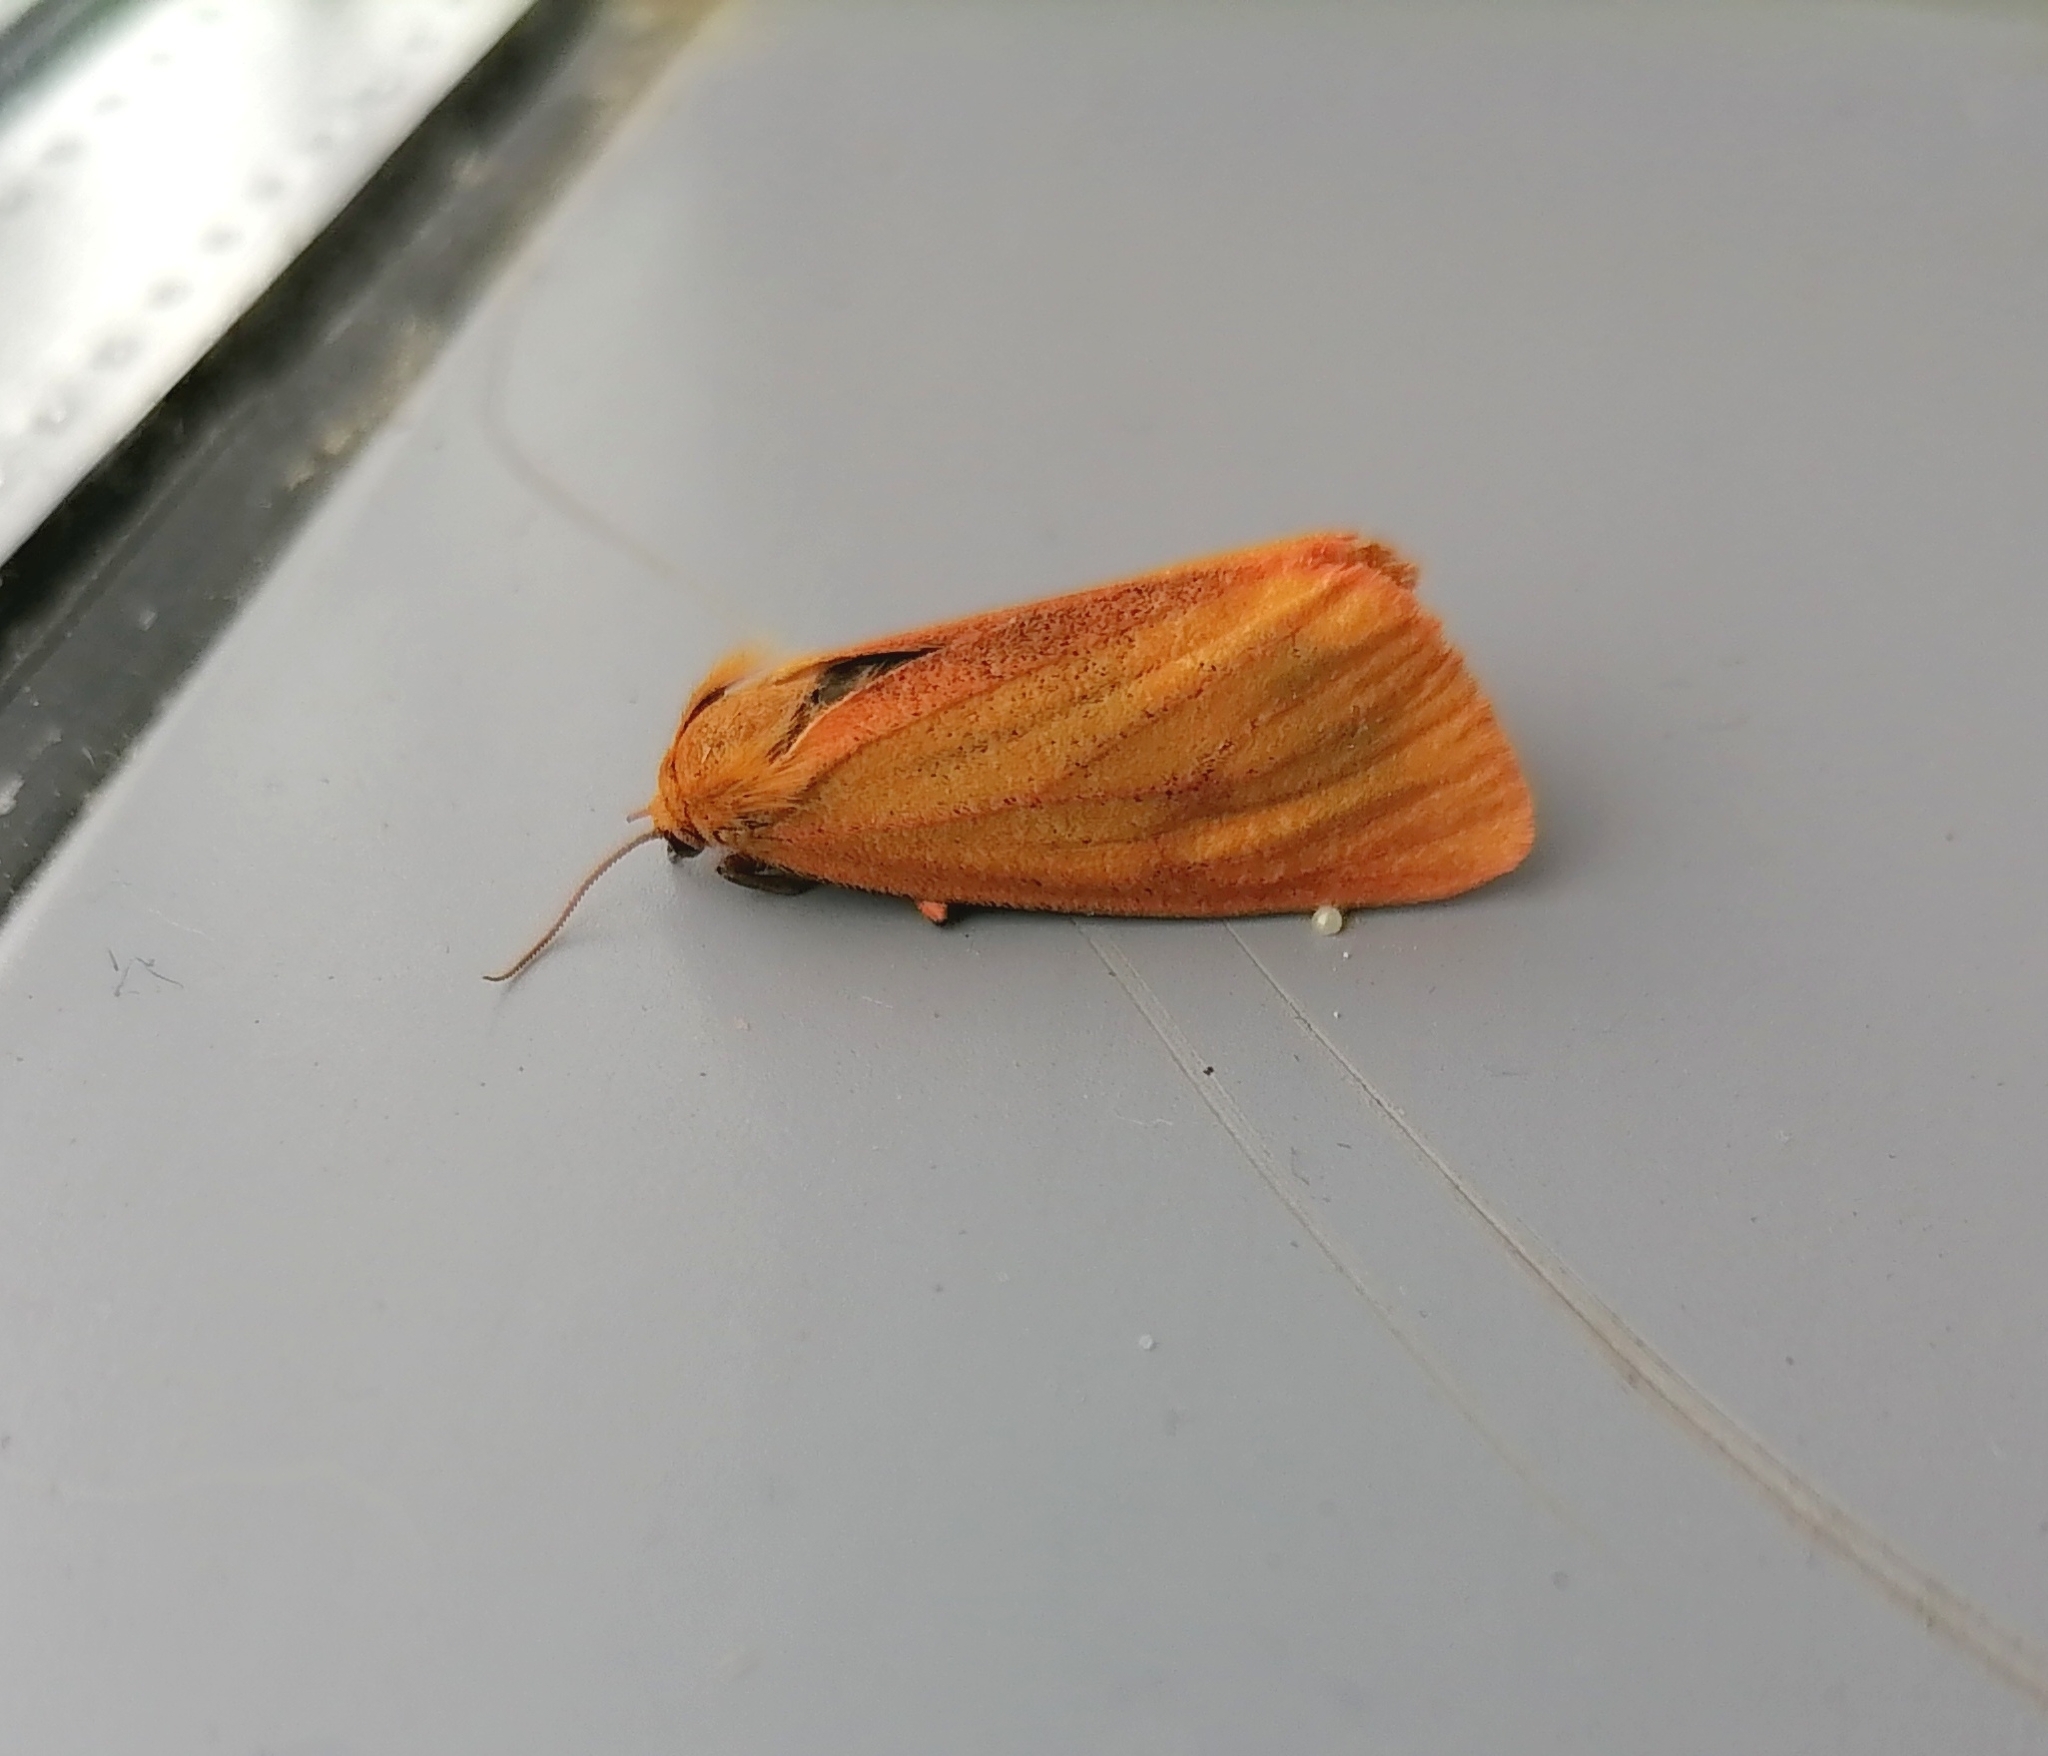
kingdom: Animalia
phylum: Arthropoda
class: Insecta
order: Lepidoptera
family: Erebidae
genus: Diacrisia
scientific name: Diacrisia sannio
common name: Clouded buff
